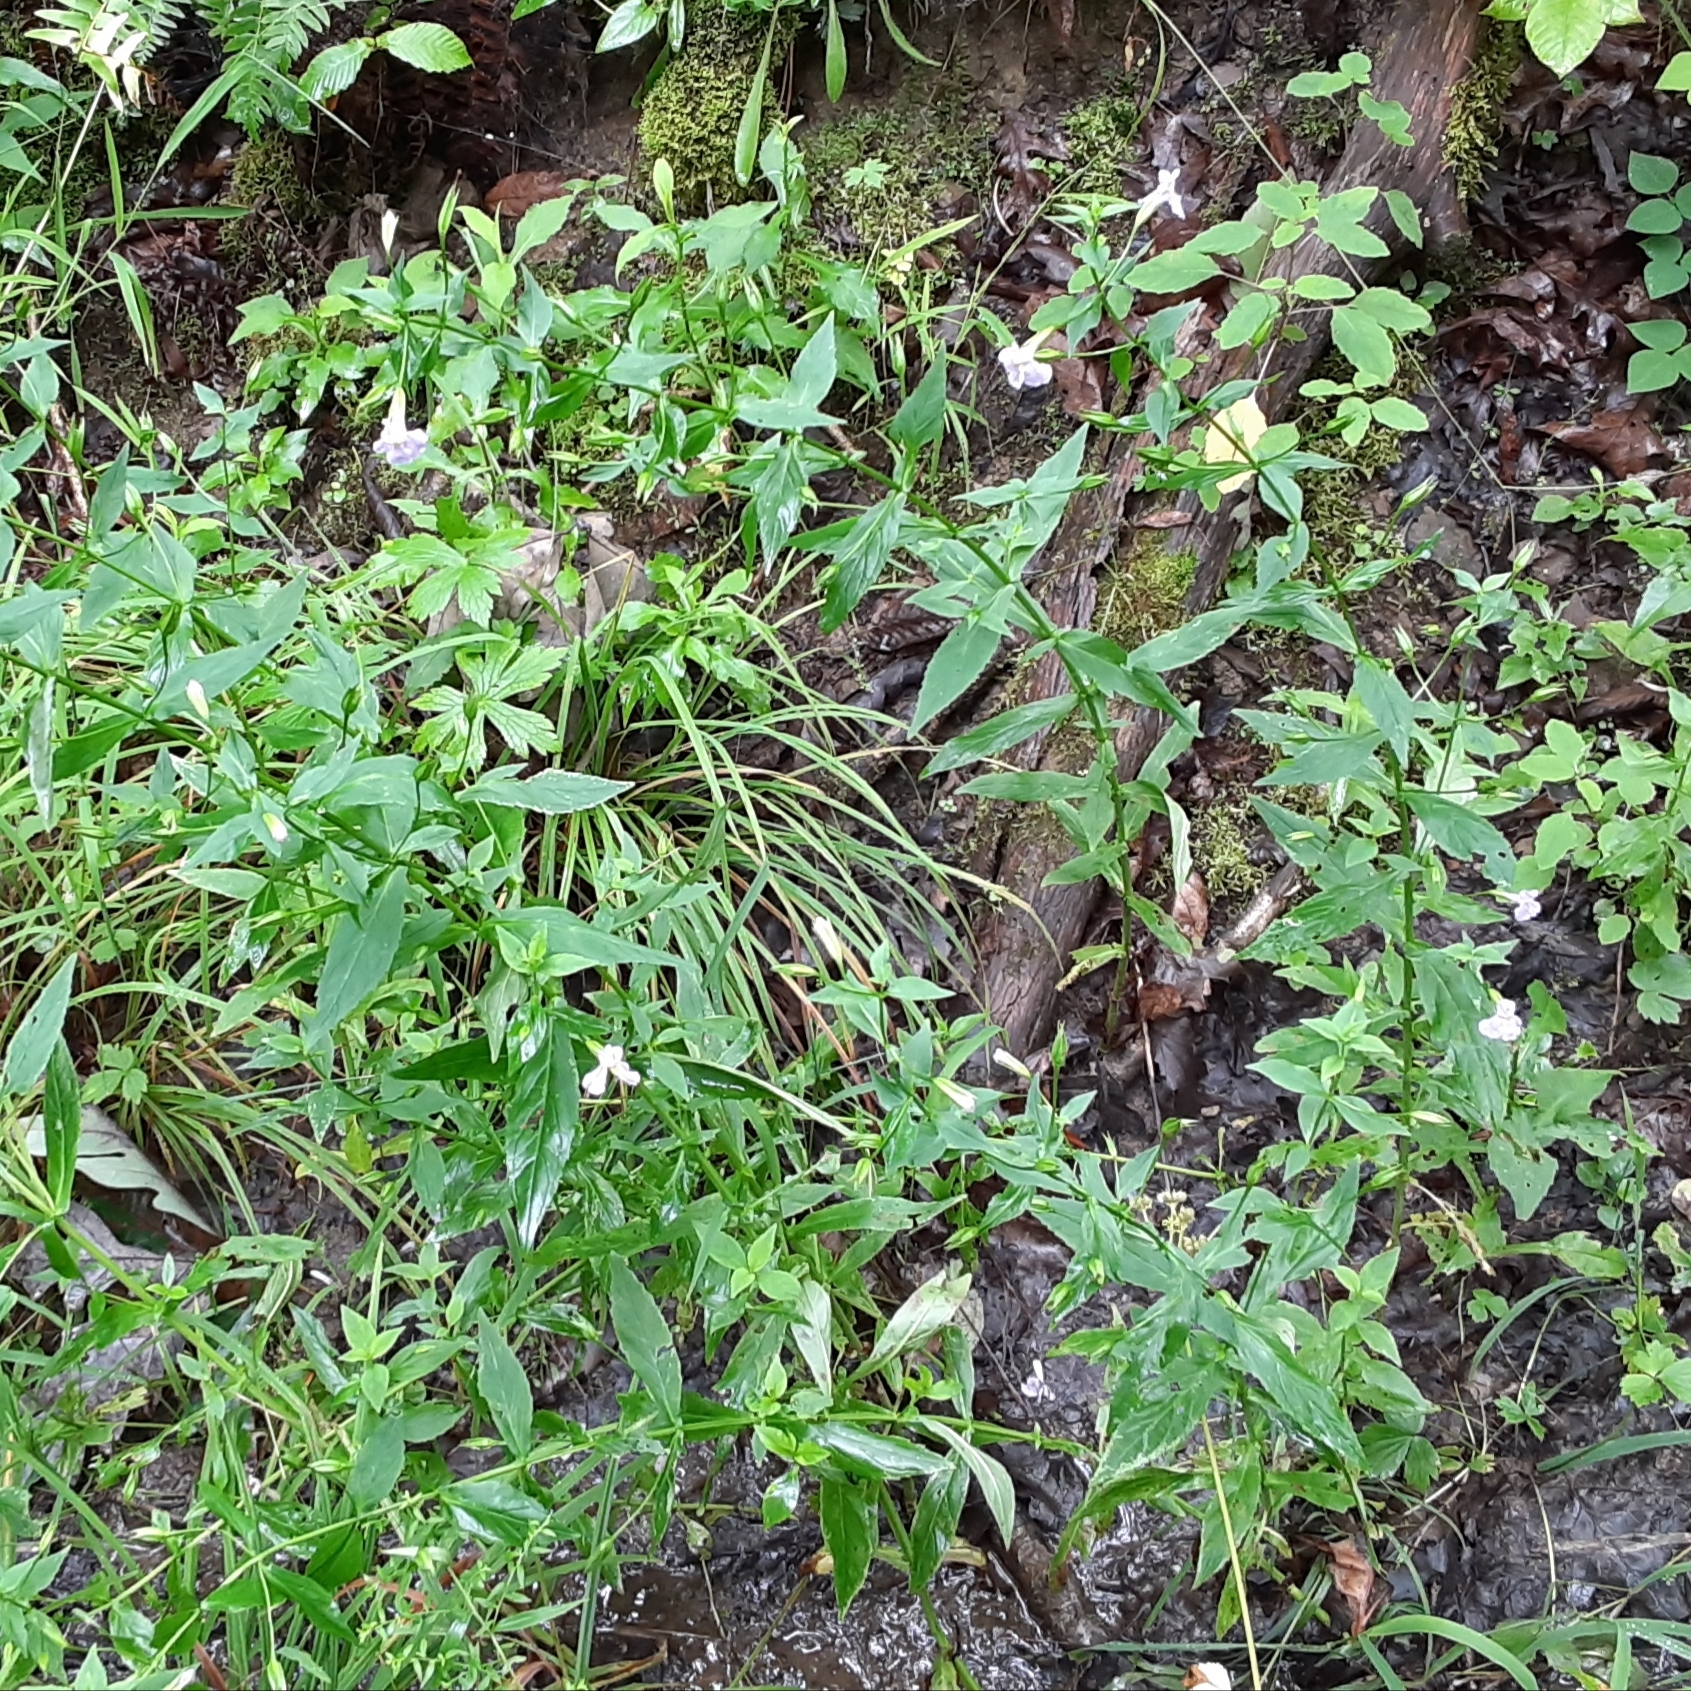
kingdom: Plantae
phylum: Tracheophyta
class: Magnoliopsida
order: Lamiales
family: Phrymaceae
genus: Mimulus
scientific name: Mimulus ringens
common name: Allegheny monkeyflower
